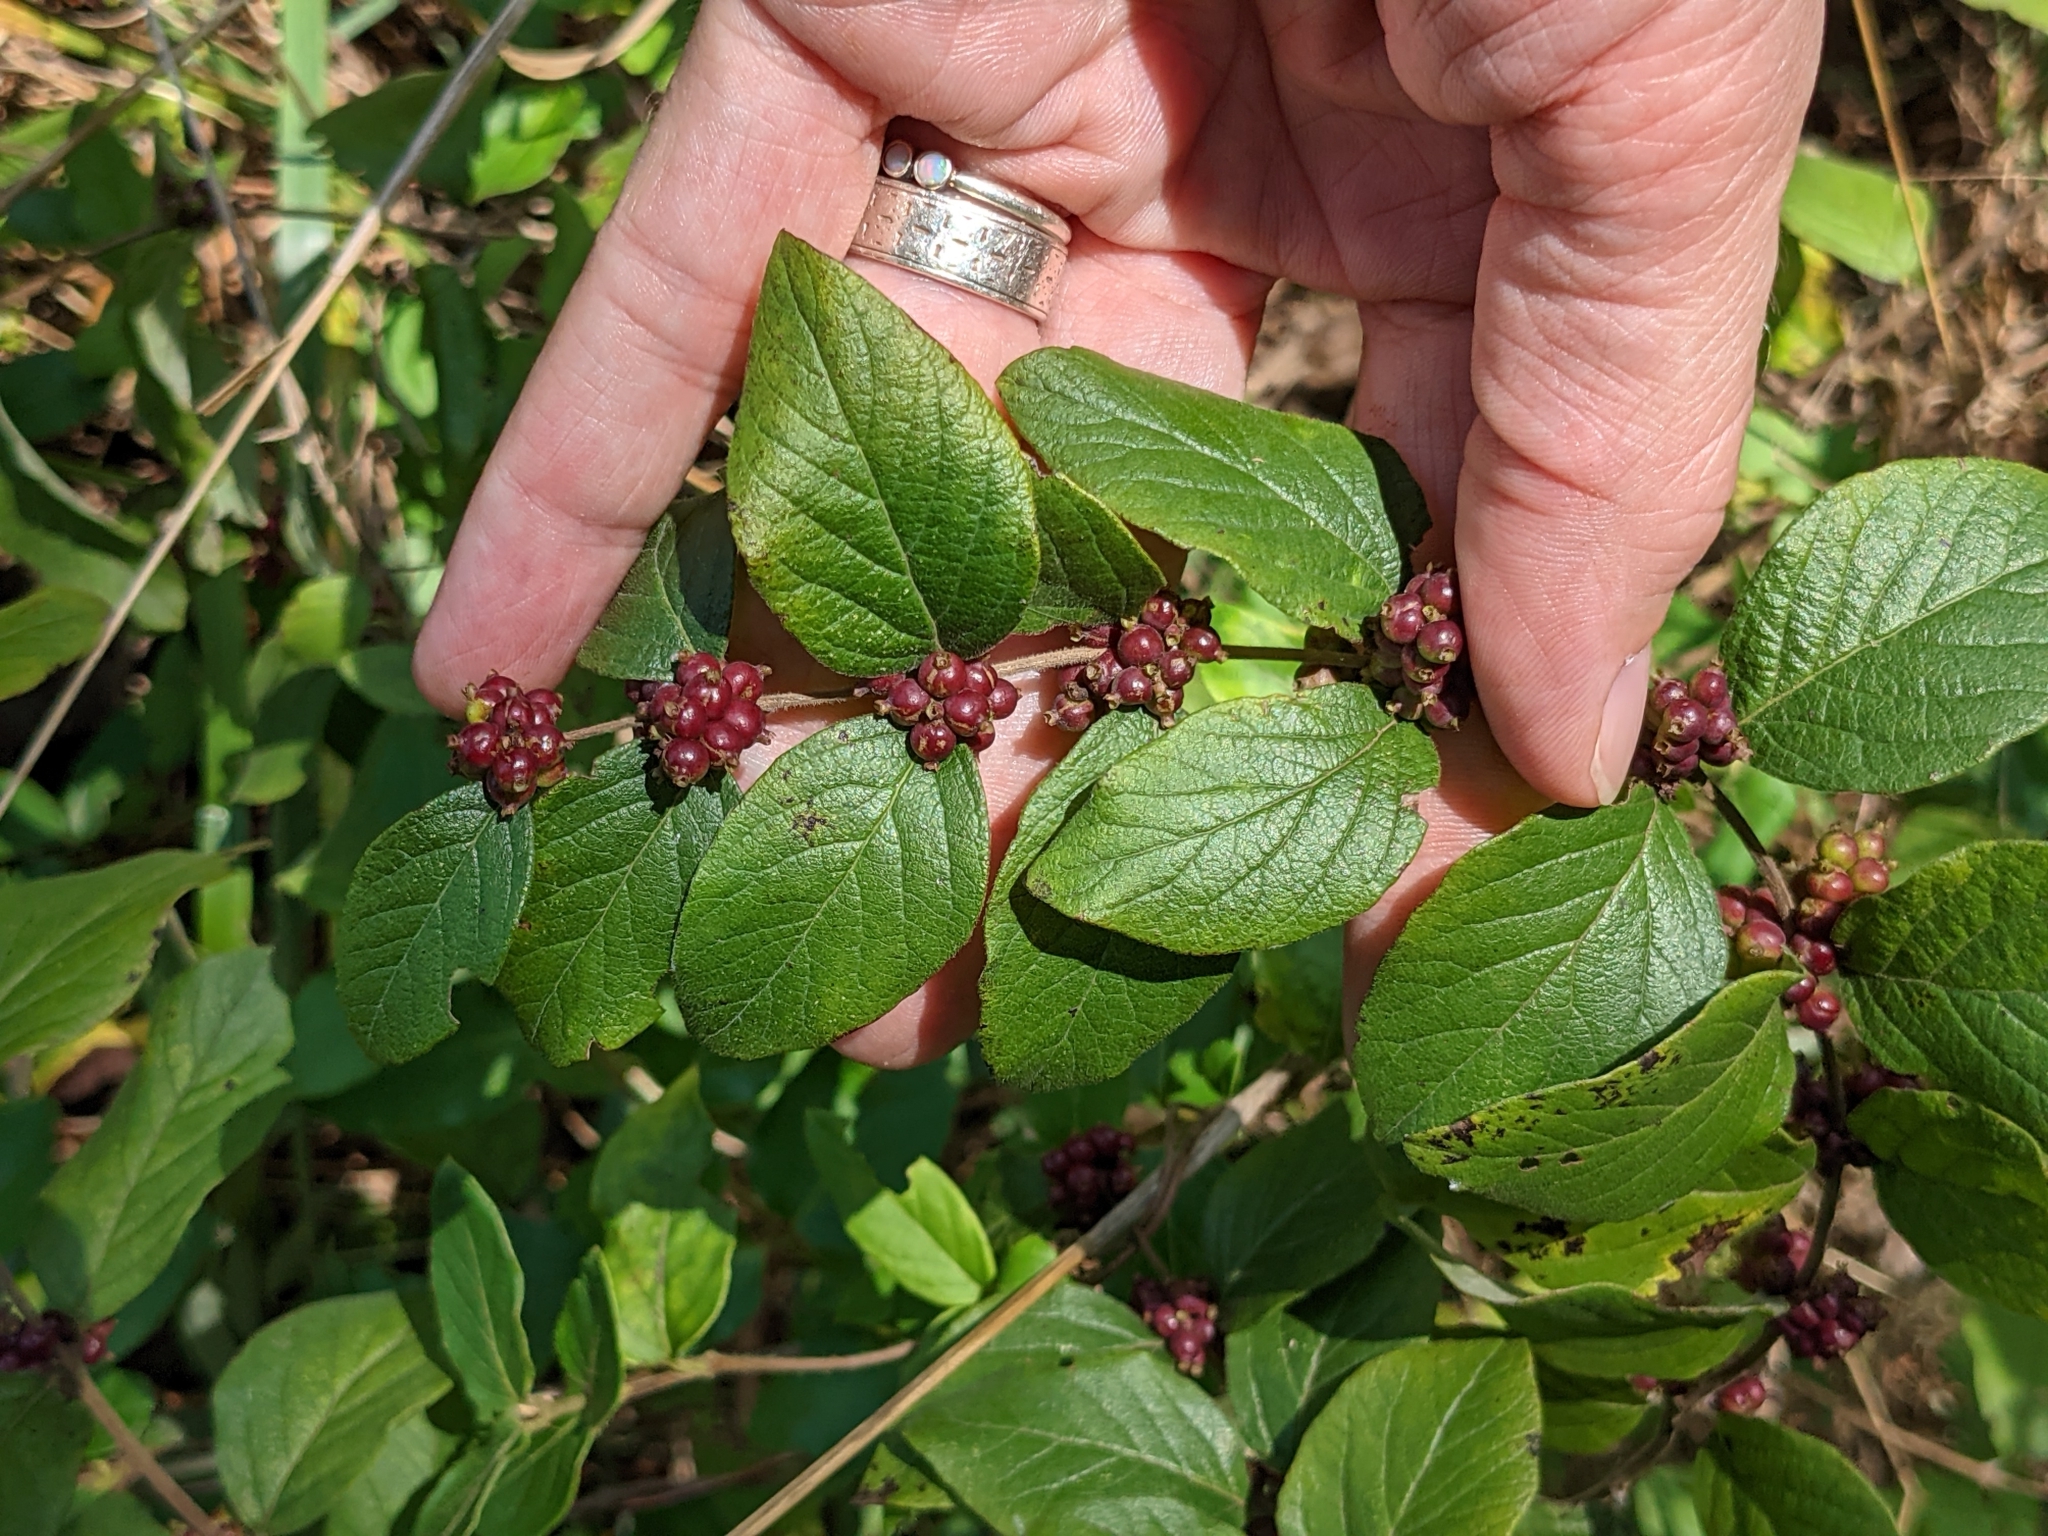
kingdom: Plantae
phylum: Tracheophyta
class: Magnoliopsida
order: Dipsacales
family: Caprifoliaceae
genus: Symphoricarpos
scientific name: Symphoricarpos orbiculatus
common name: Coralberry
